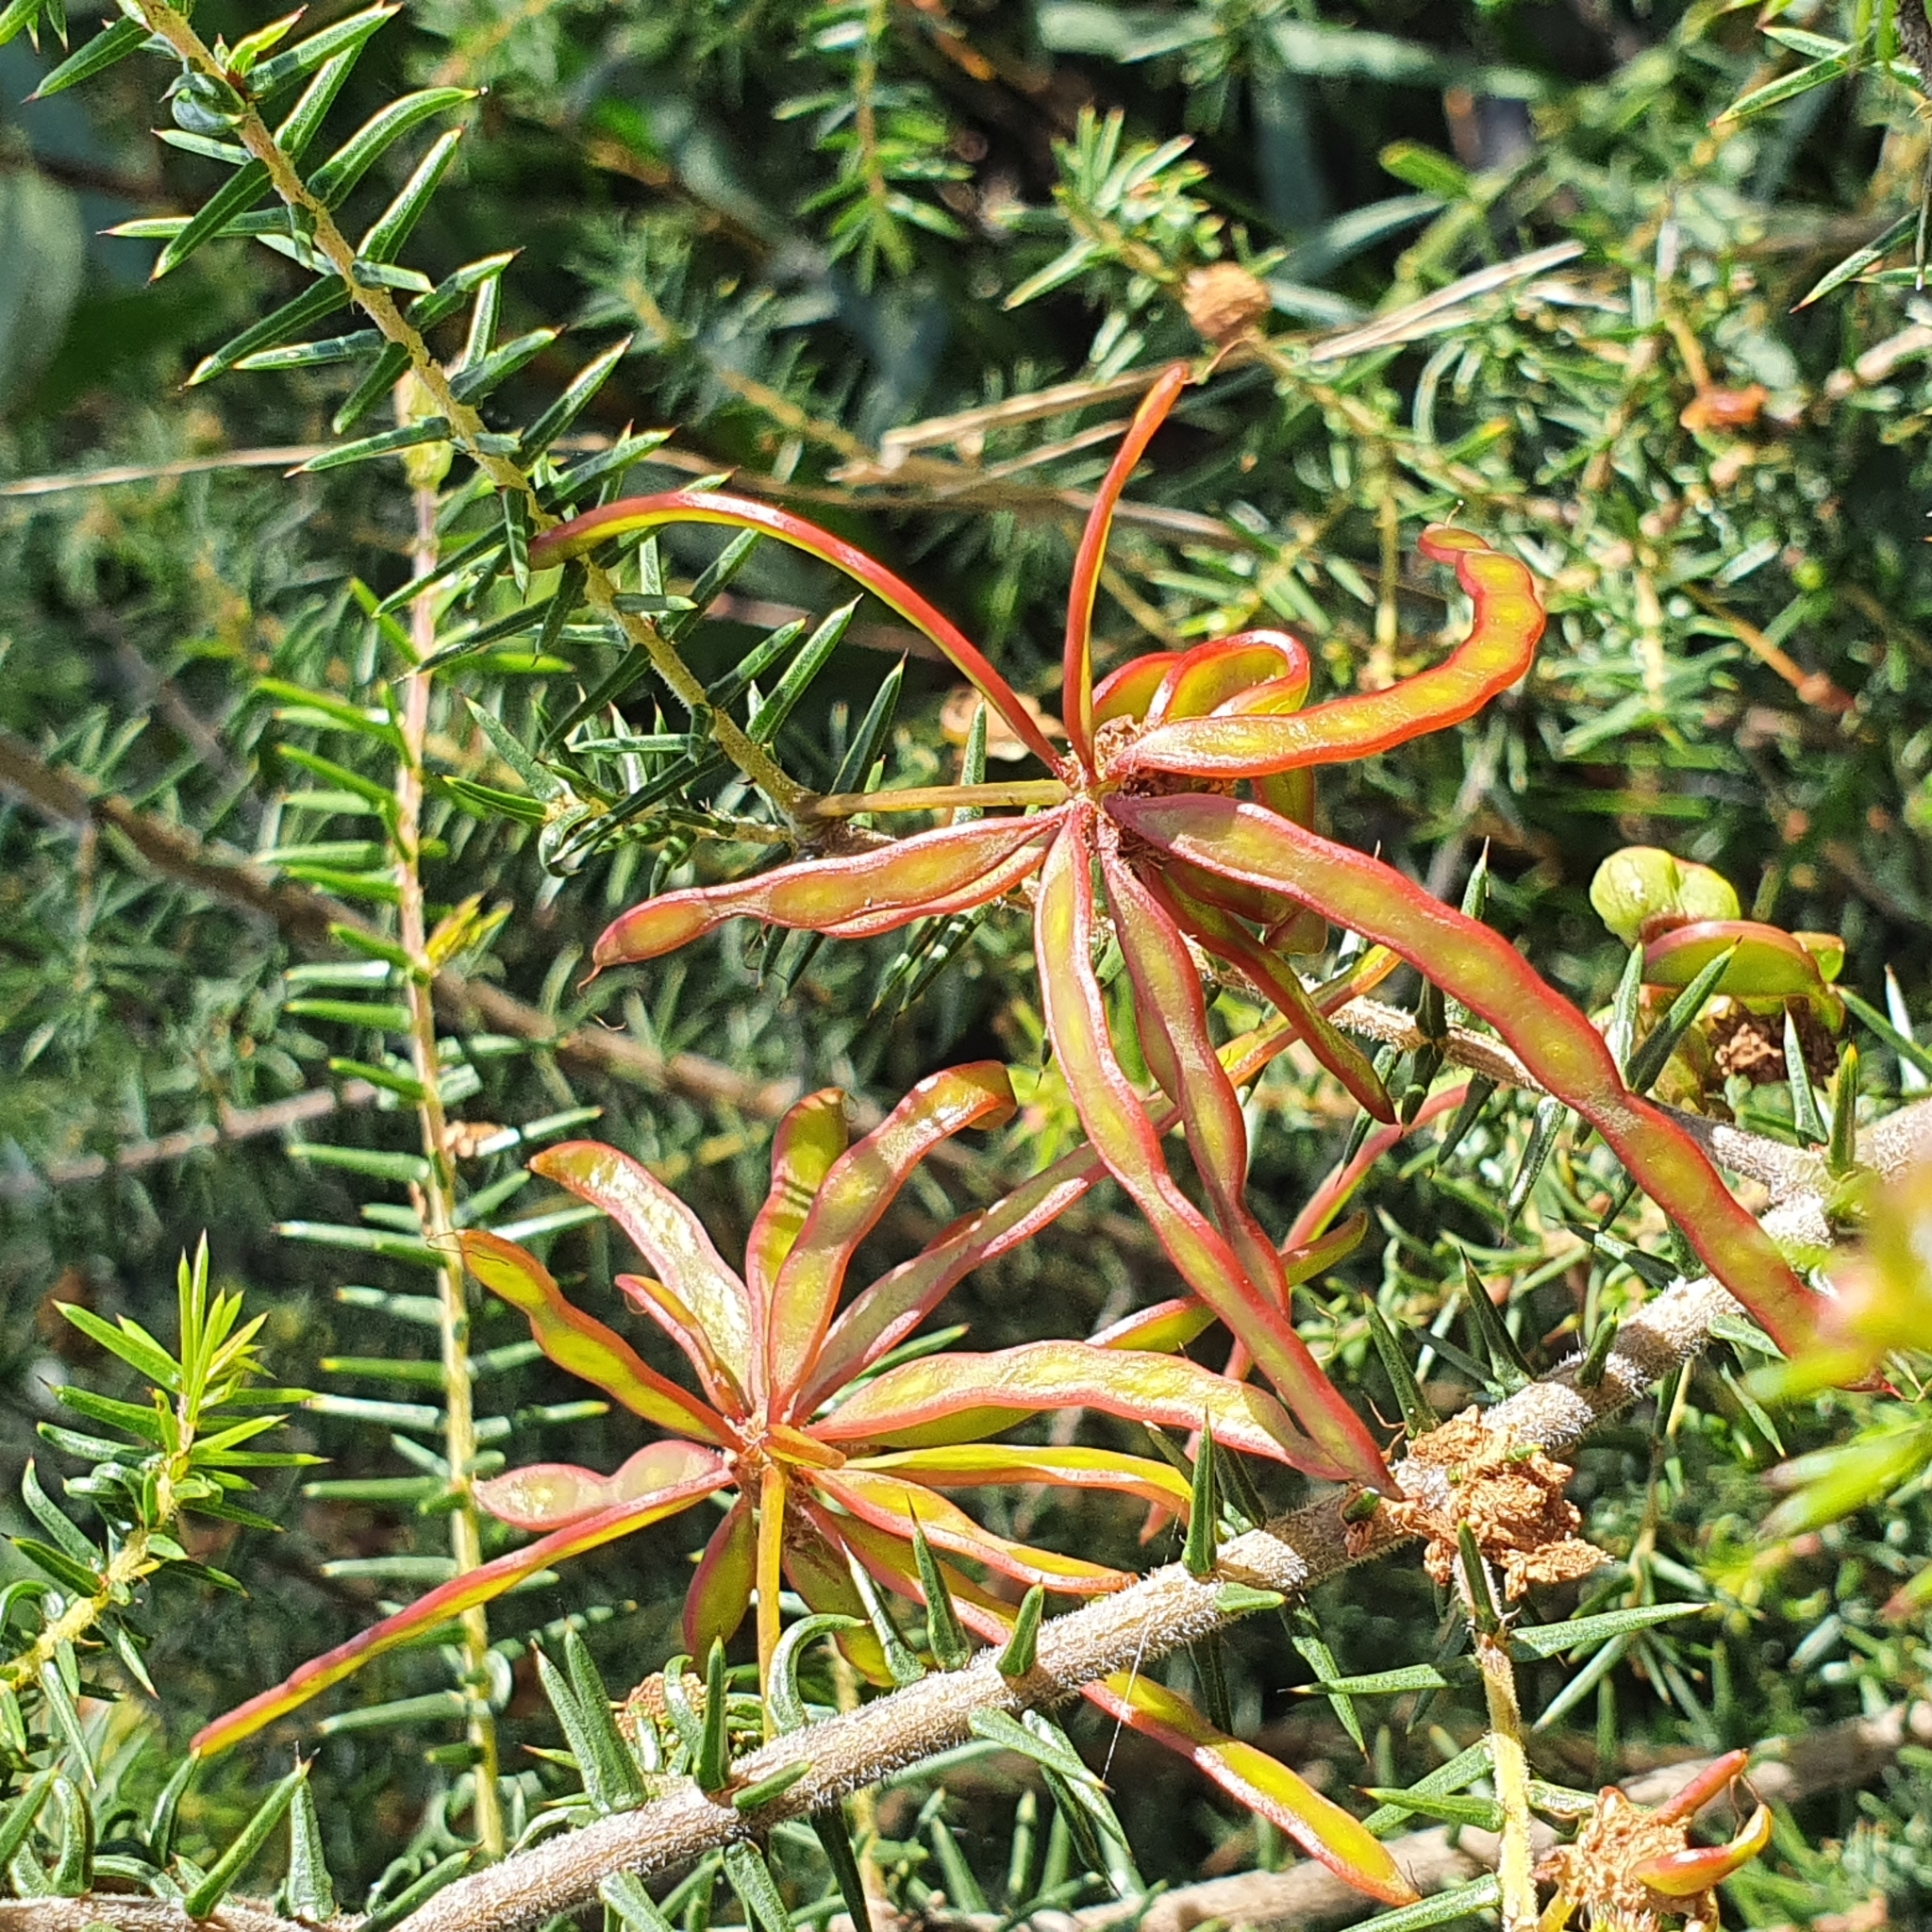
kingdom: Plantae
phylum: Tracheophyta
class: Magnoliopsida
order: Fabales
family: Fabaceae
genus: Acacia
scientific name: Acacia ulicifolia
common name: Juniper wattle
